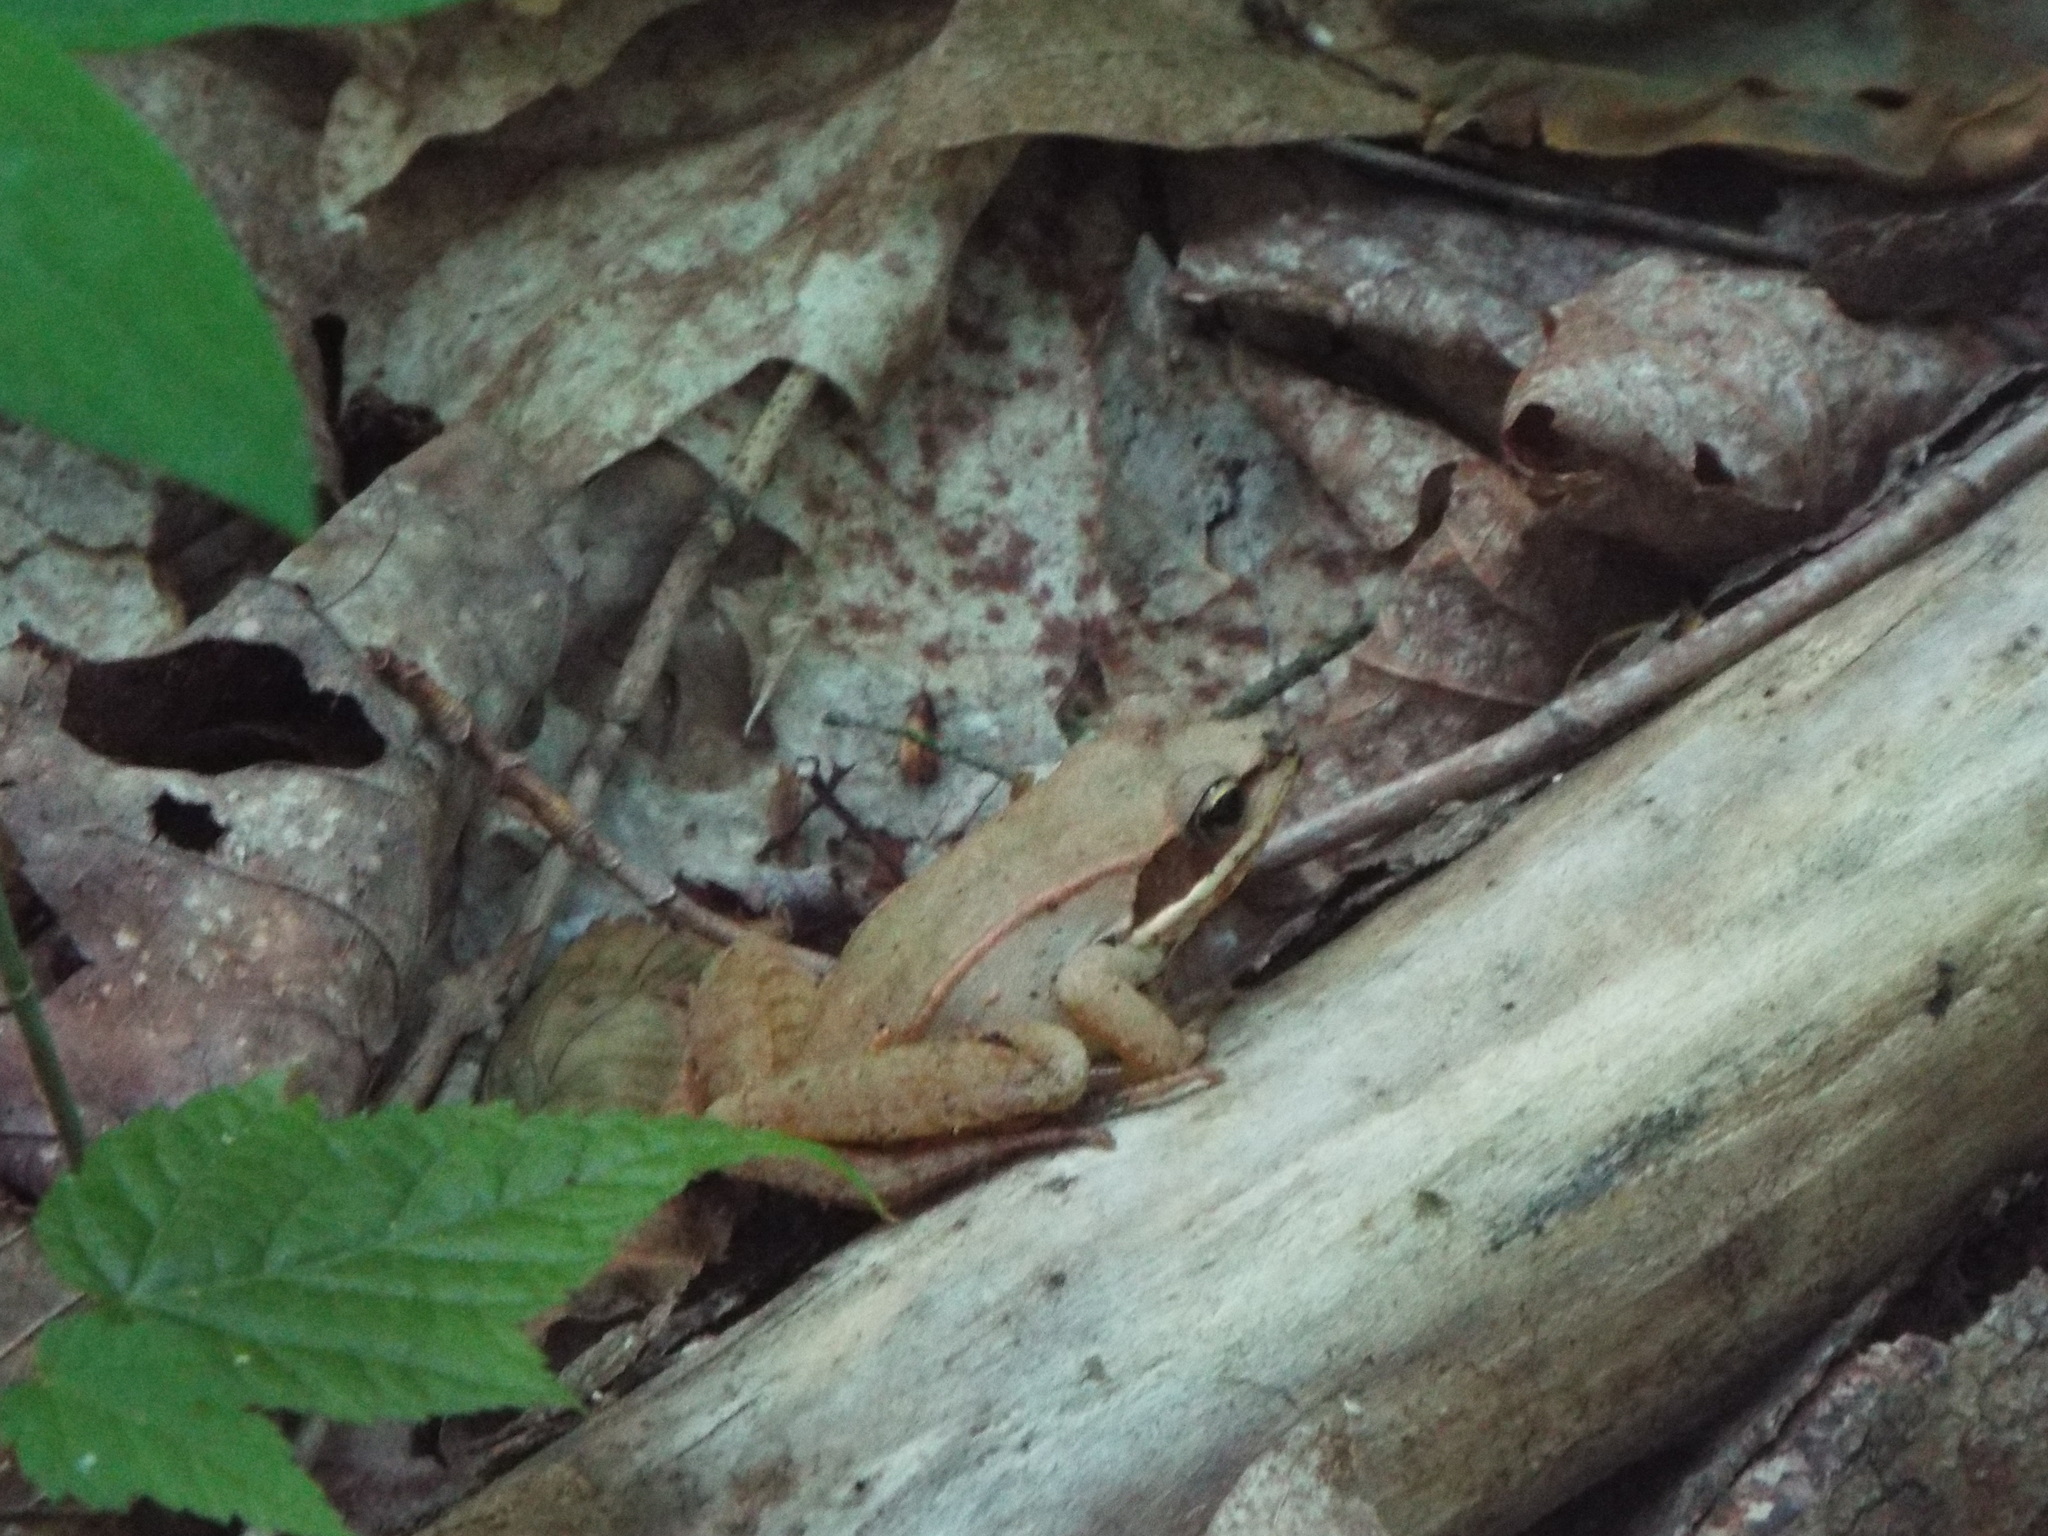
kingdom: Animalia
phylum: Chordata
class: Amphibia
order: Anura
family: Ranidae
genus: Lithobates
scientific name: Lithobates sylvaticus
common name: Wood frog
